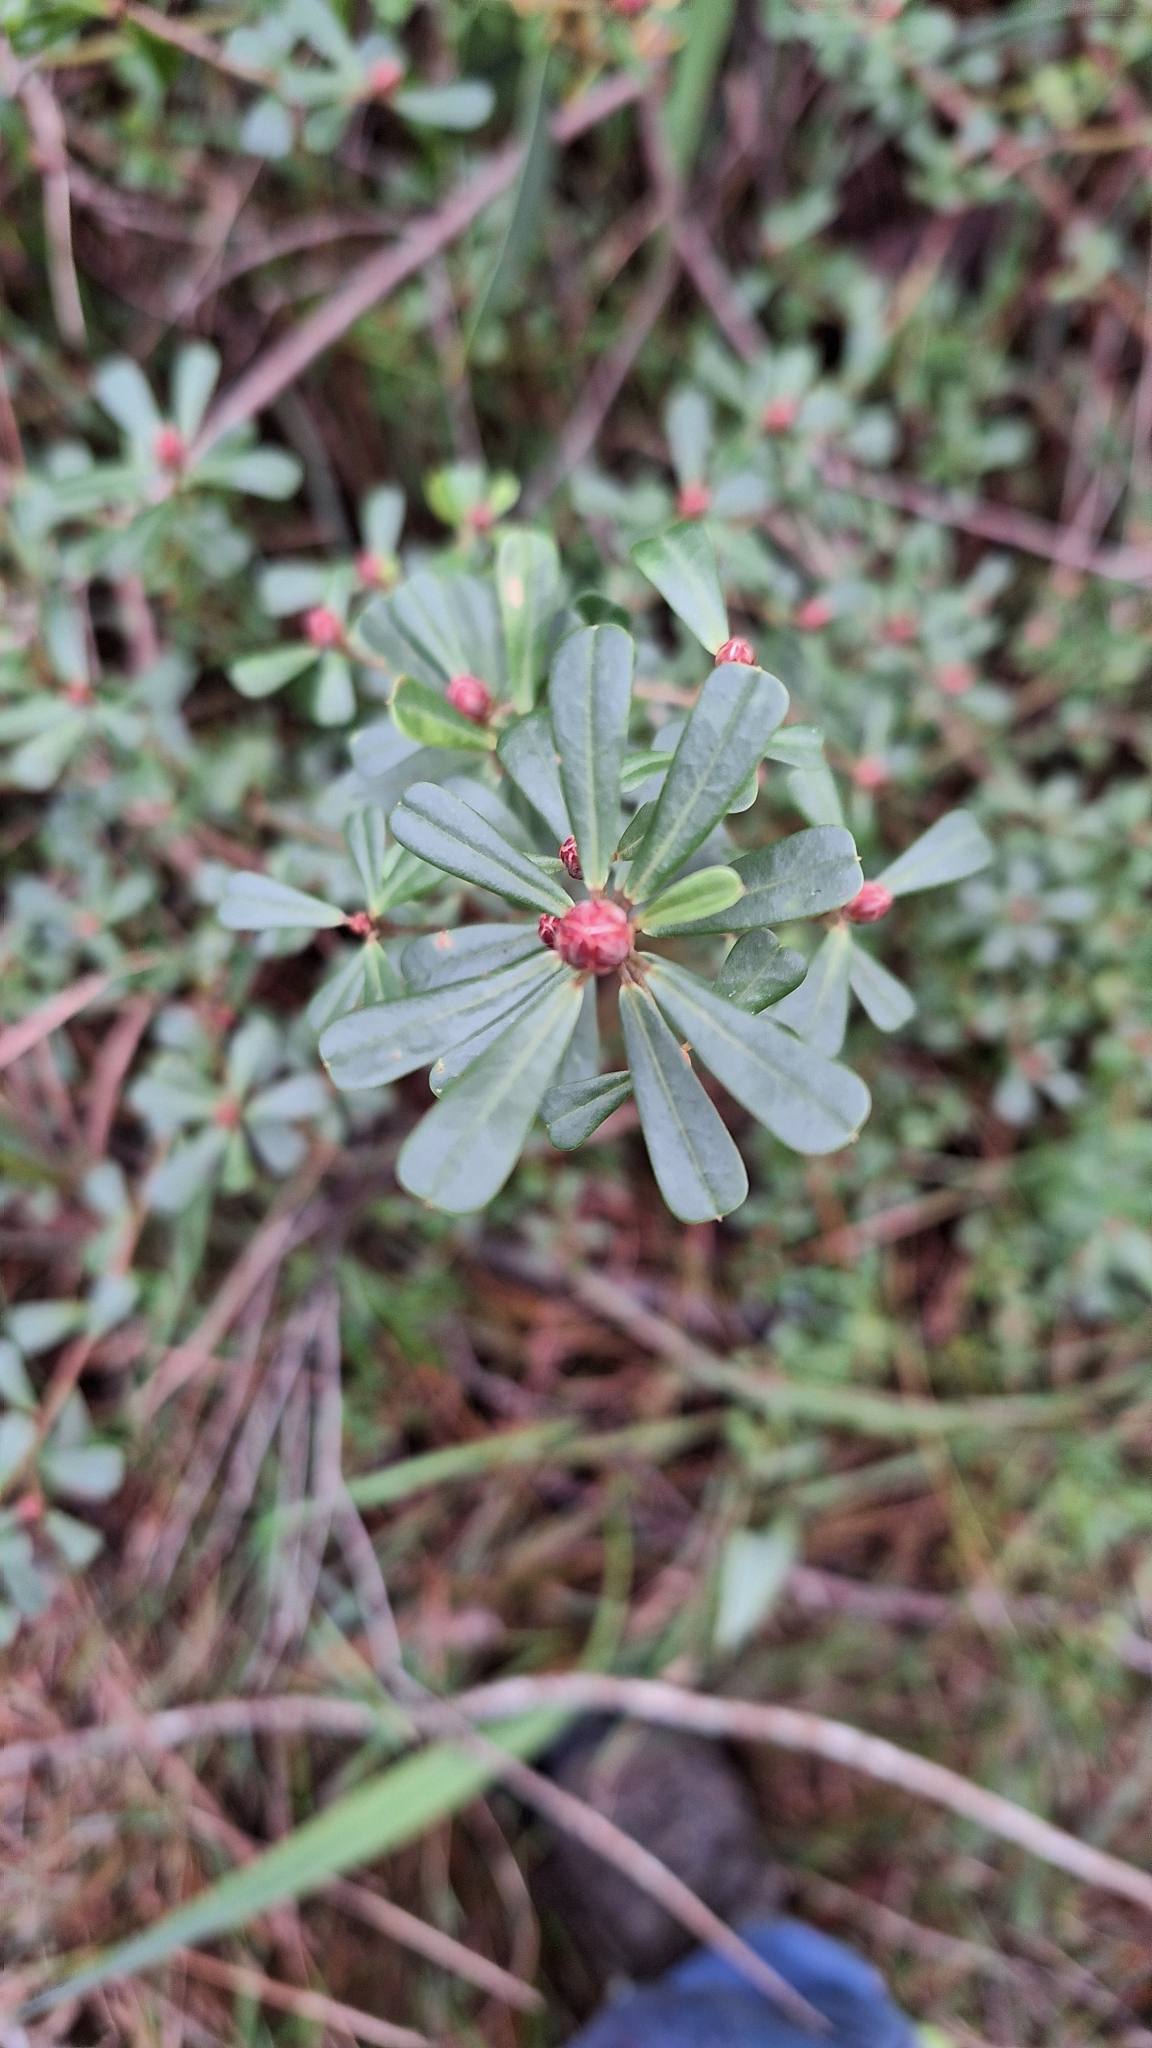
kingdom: Plantae
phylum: Tracheophyta
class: Magnoliopsida
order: Fabales
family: Fabaceae
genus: Pultenaea
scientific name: Pultenaea daphnoides
